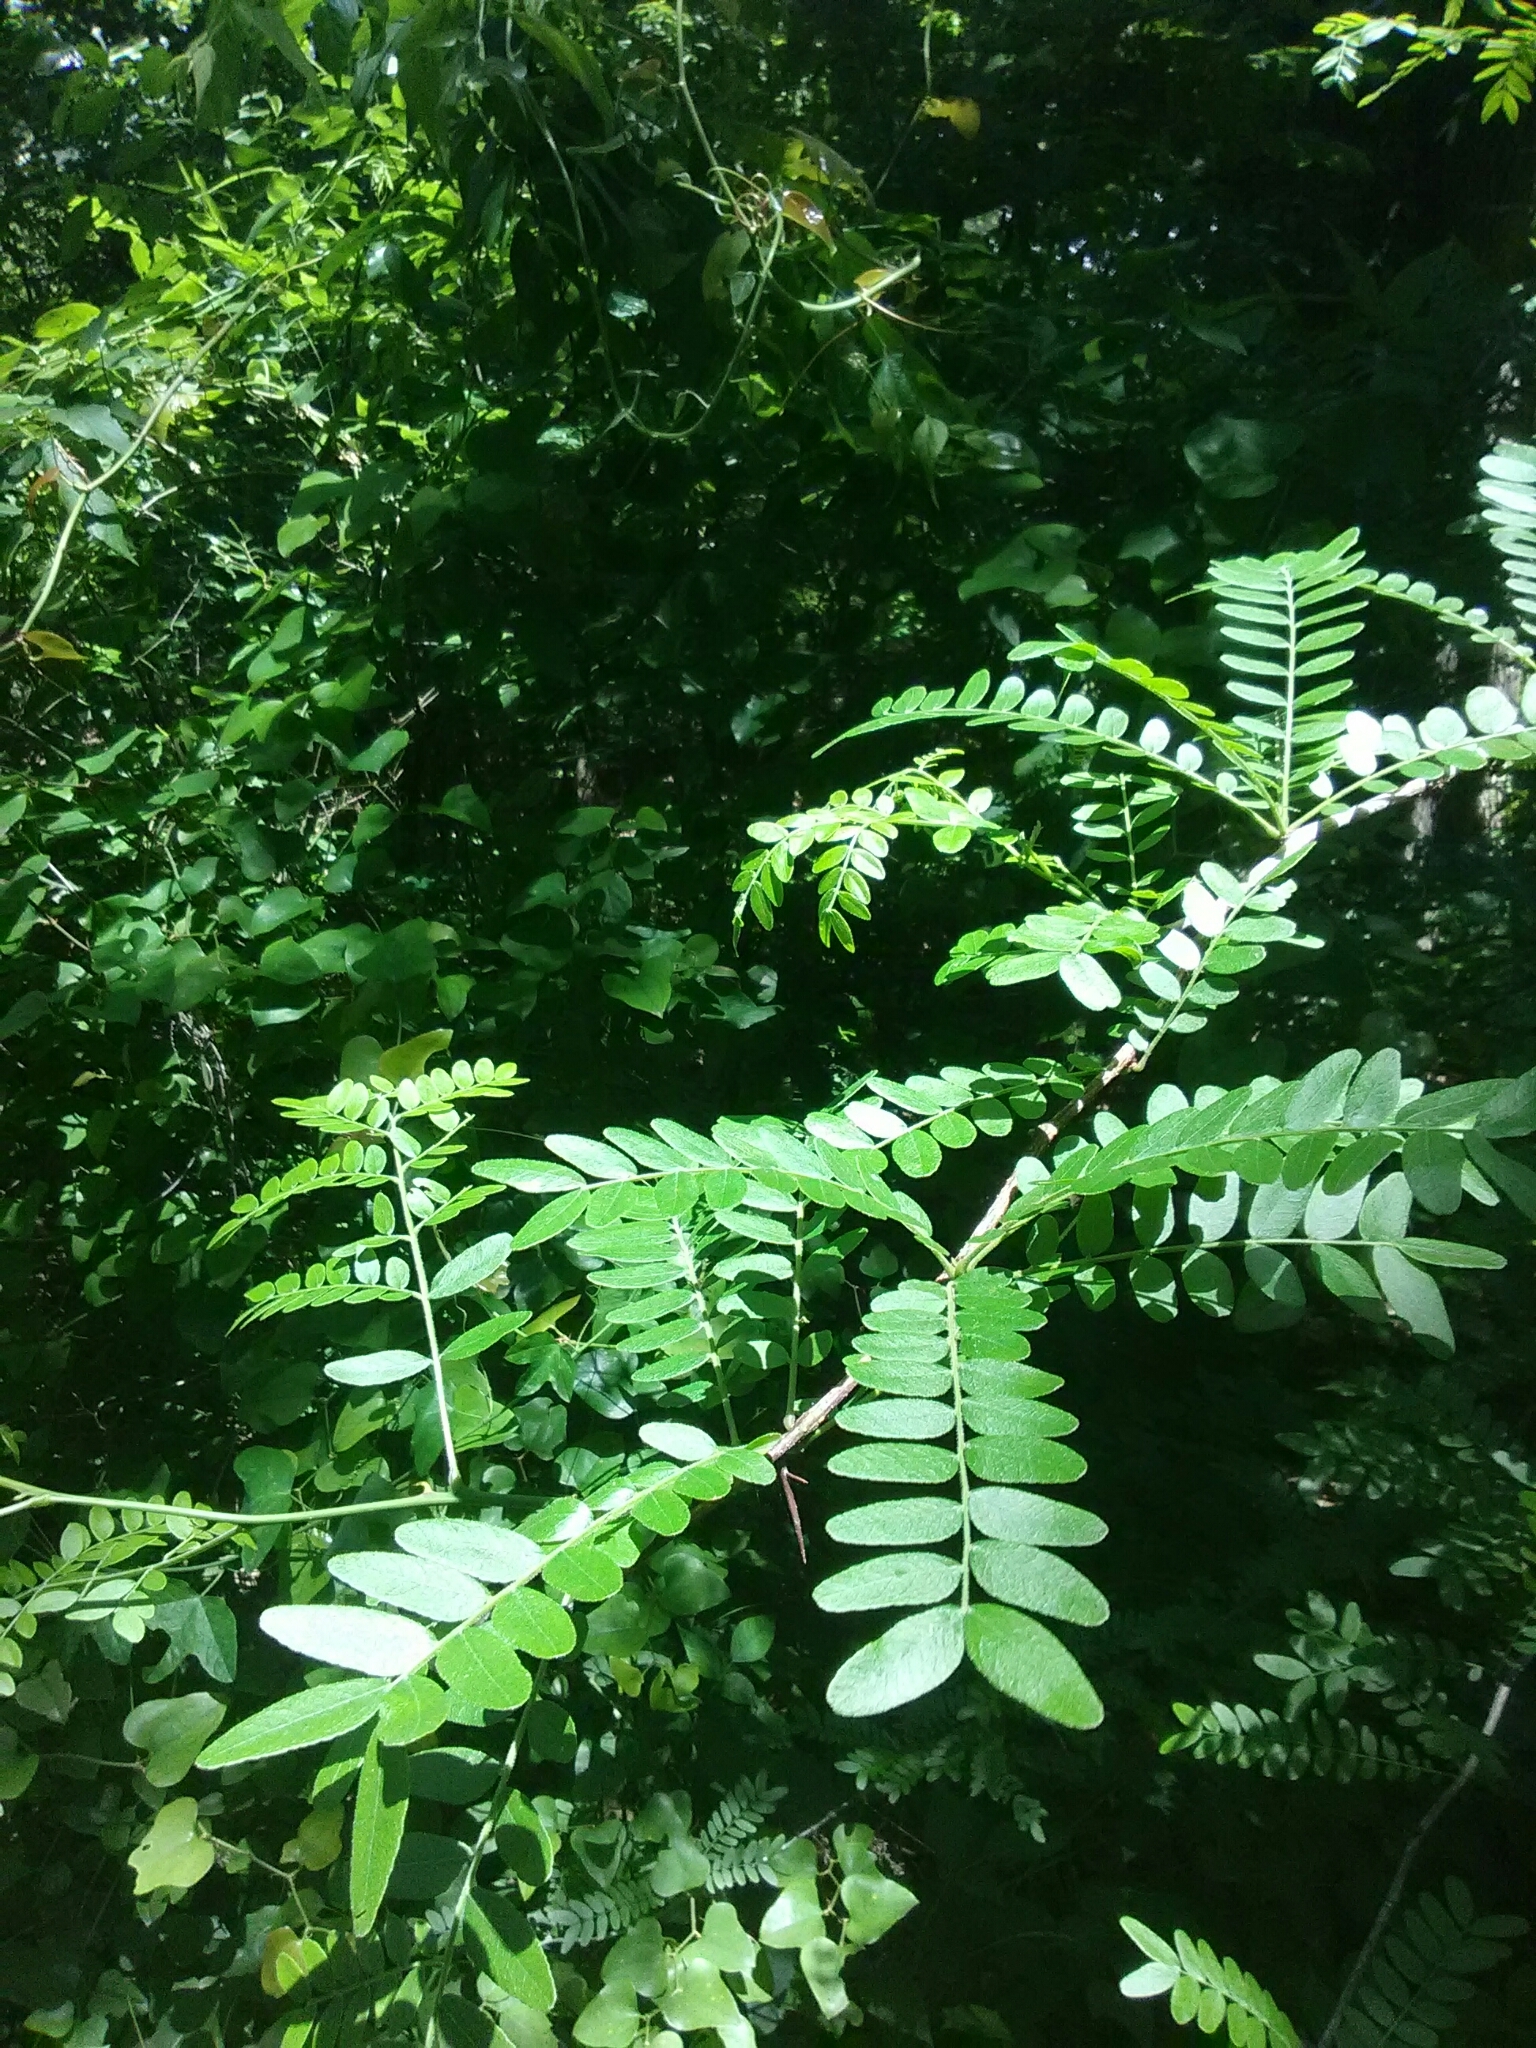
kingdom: Plantae
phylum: Tracheophyta
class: Magnoliopsida
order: Fabales
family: Fabaceae
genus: Gleditsia
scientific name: Gleditsia triacanthos
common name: Common honeylocust
